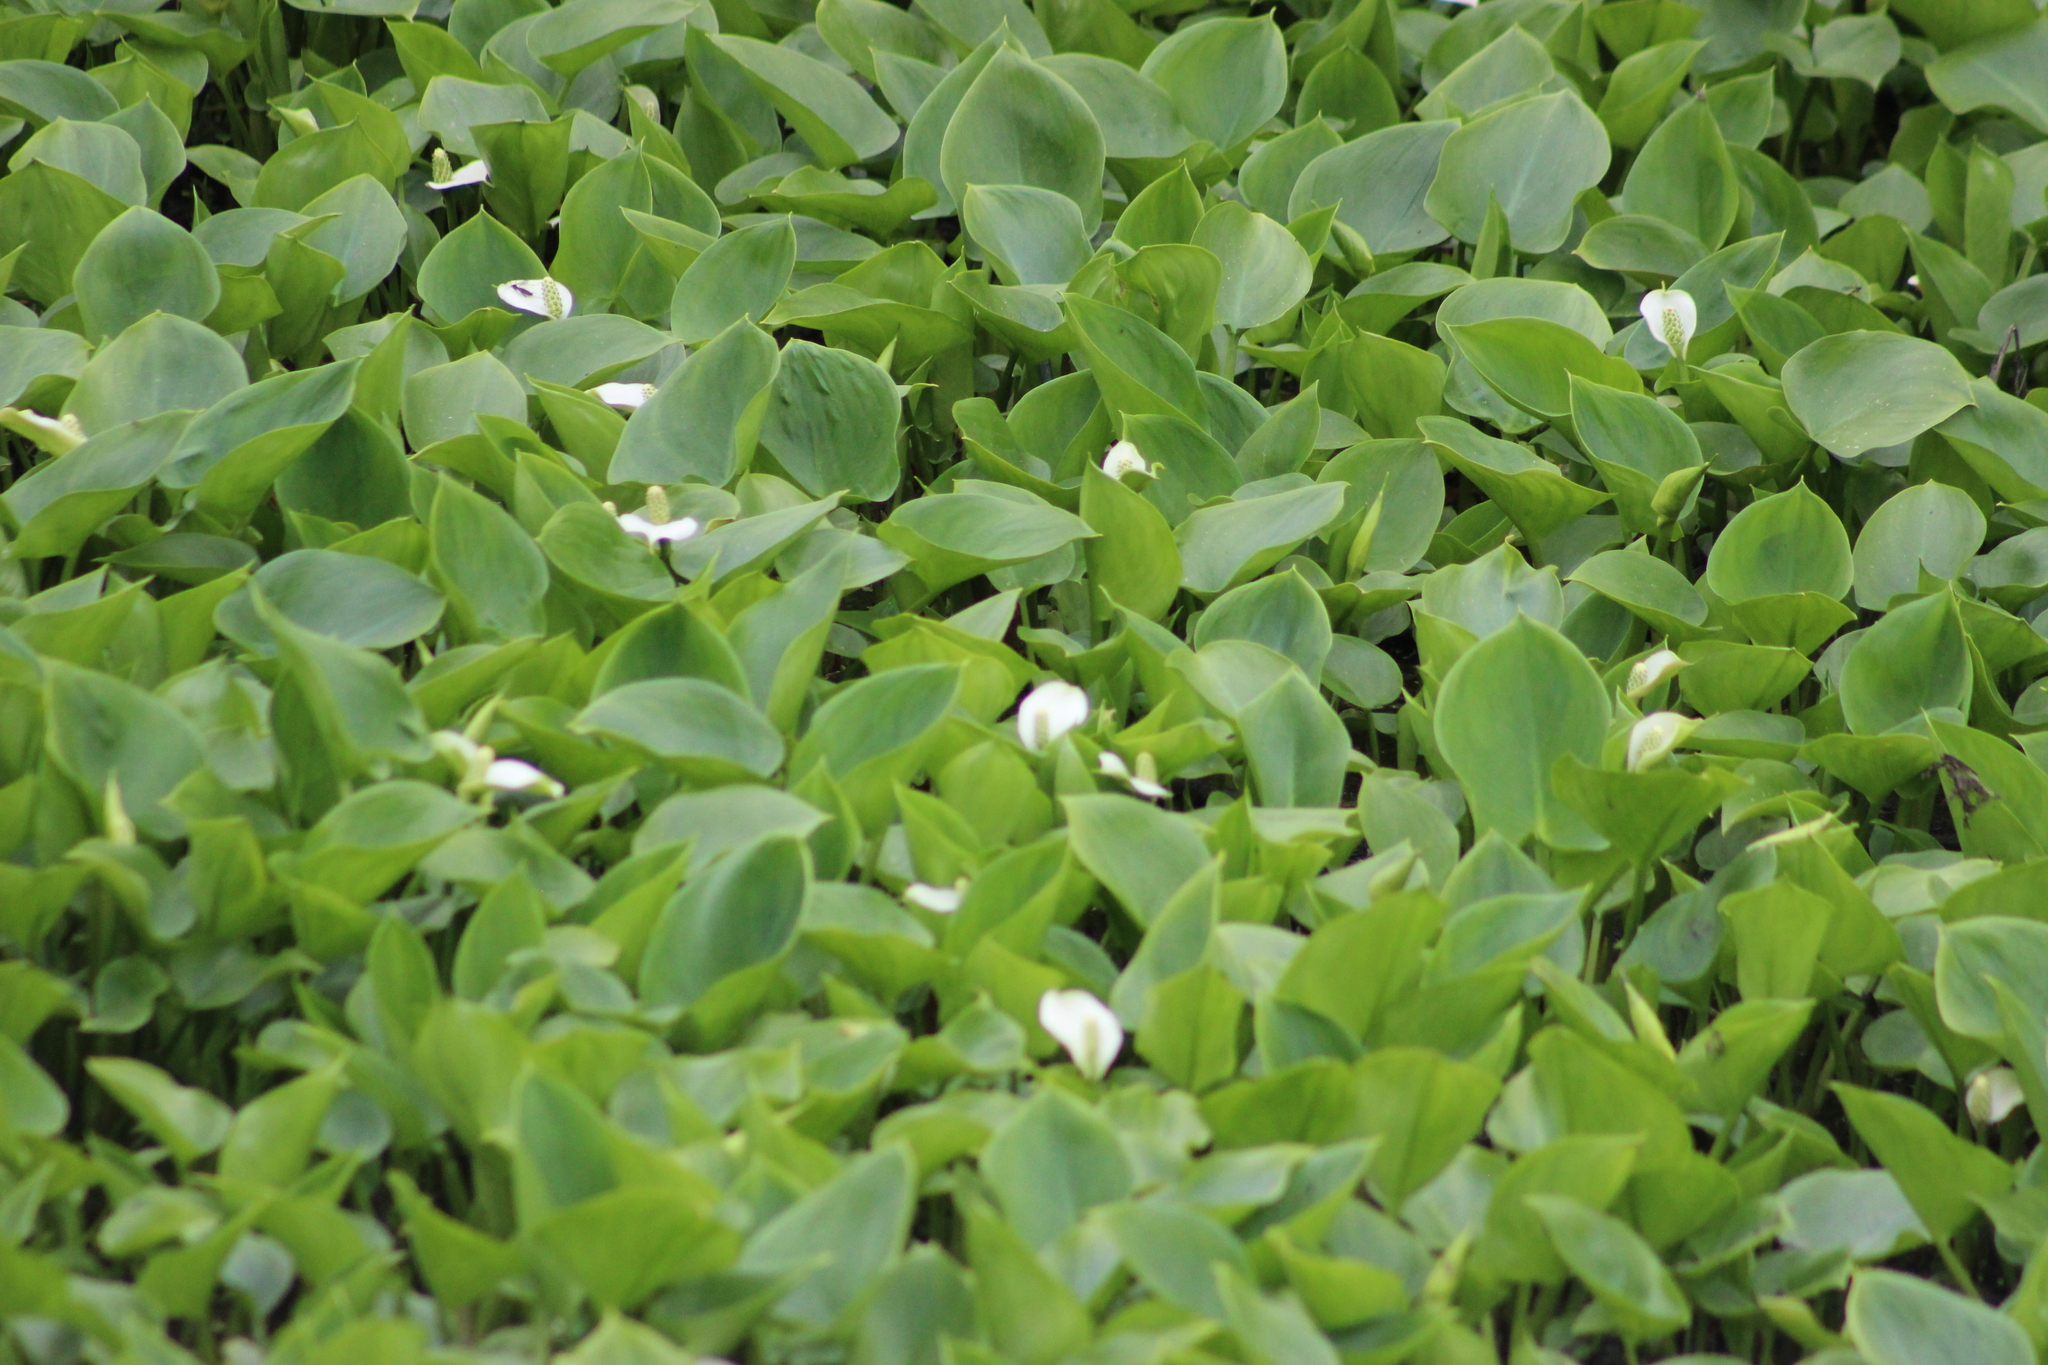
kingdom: Plantae
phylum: Tracheophyta
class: Liliopsida
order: Alismatales
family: Araceae
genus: Calla
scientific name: Calla palustris
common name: Bog arum
